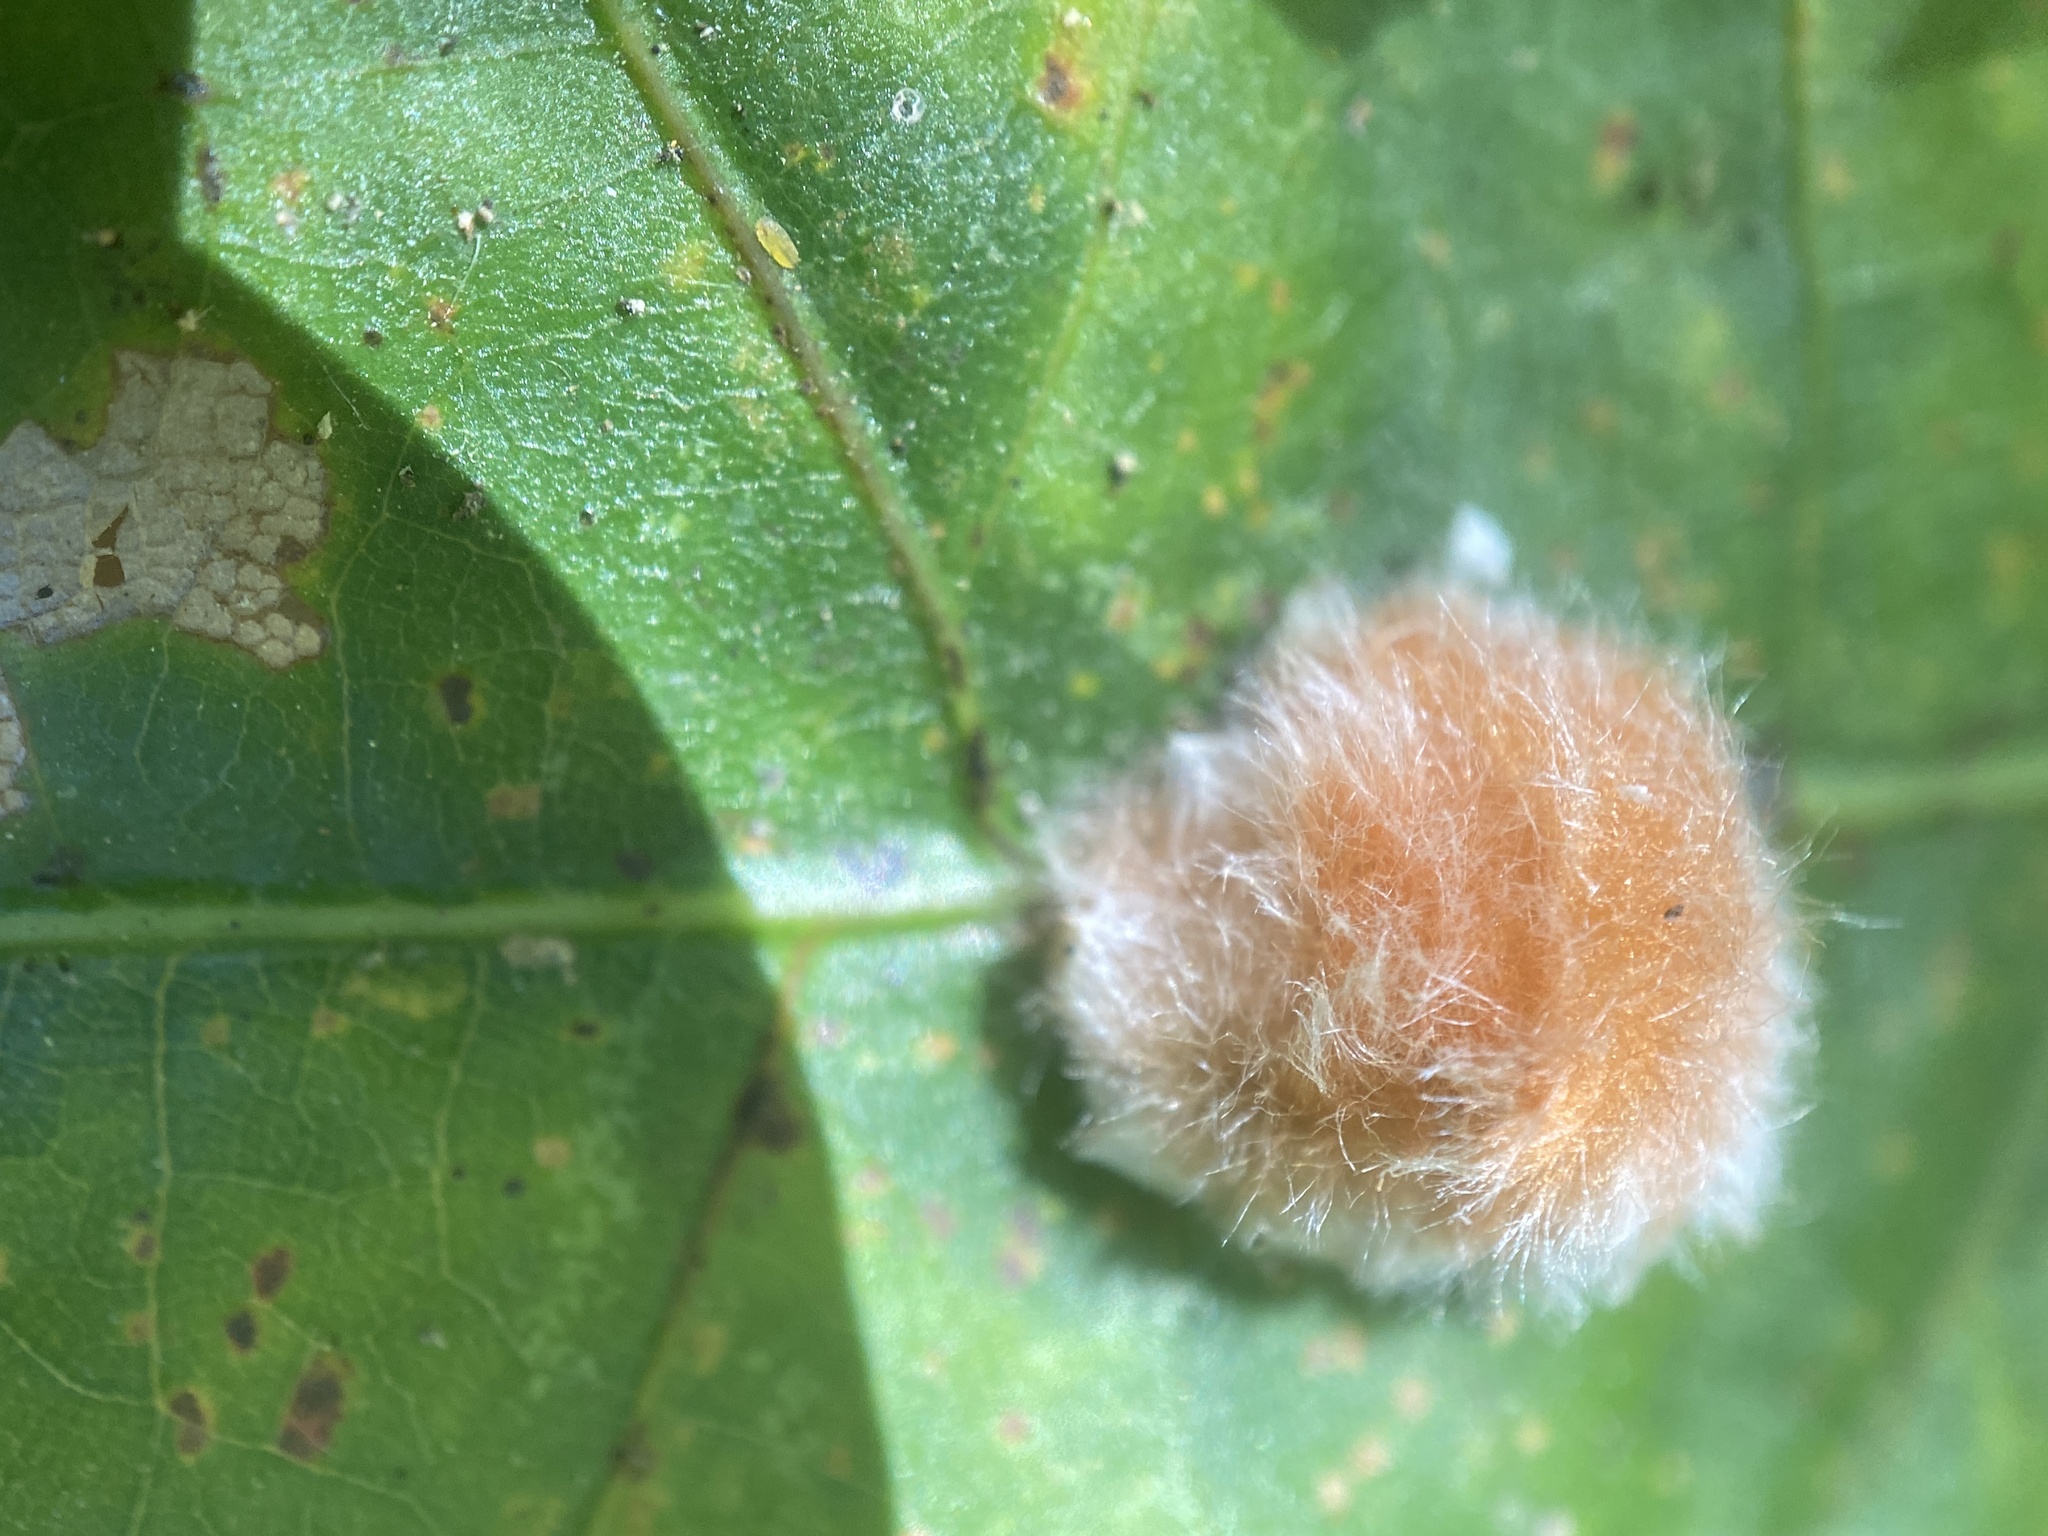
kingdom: Animalia
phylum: Arthropoda
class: Insecta
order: Hymenoptera
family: Cynipidae
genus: Andricus
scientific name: Andricus quercusflocci
